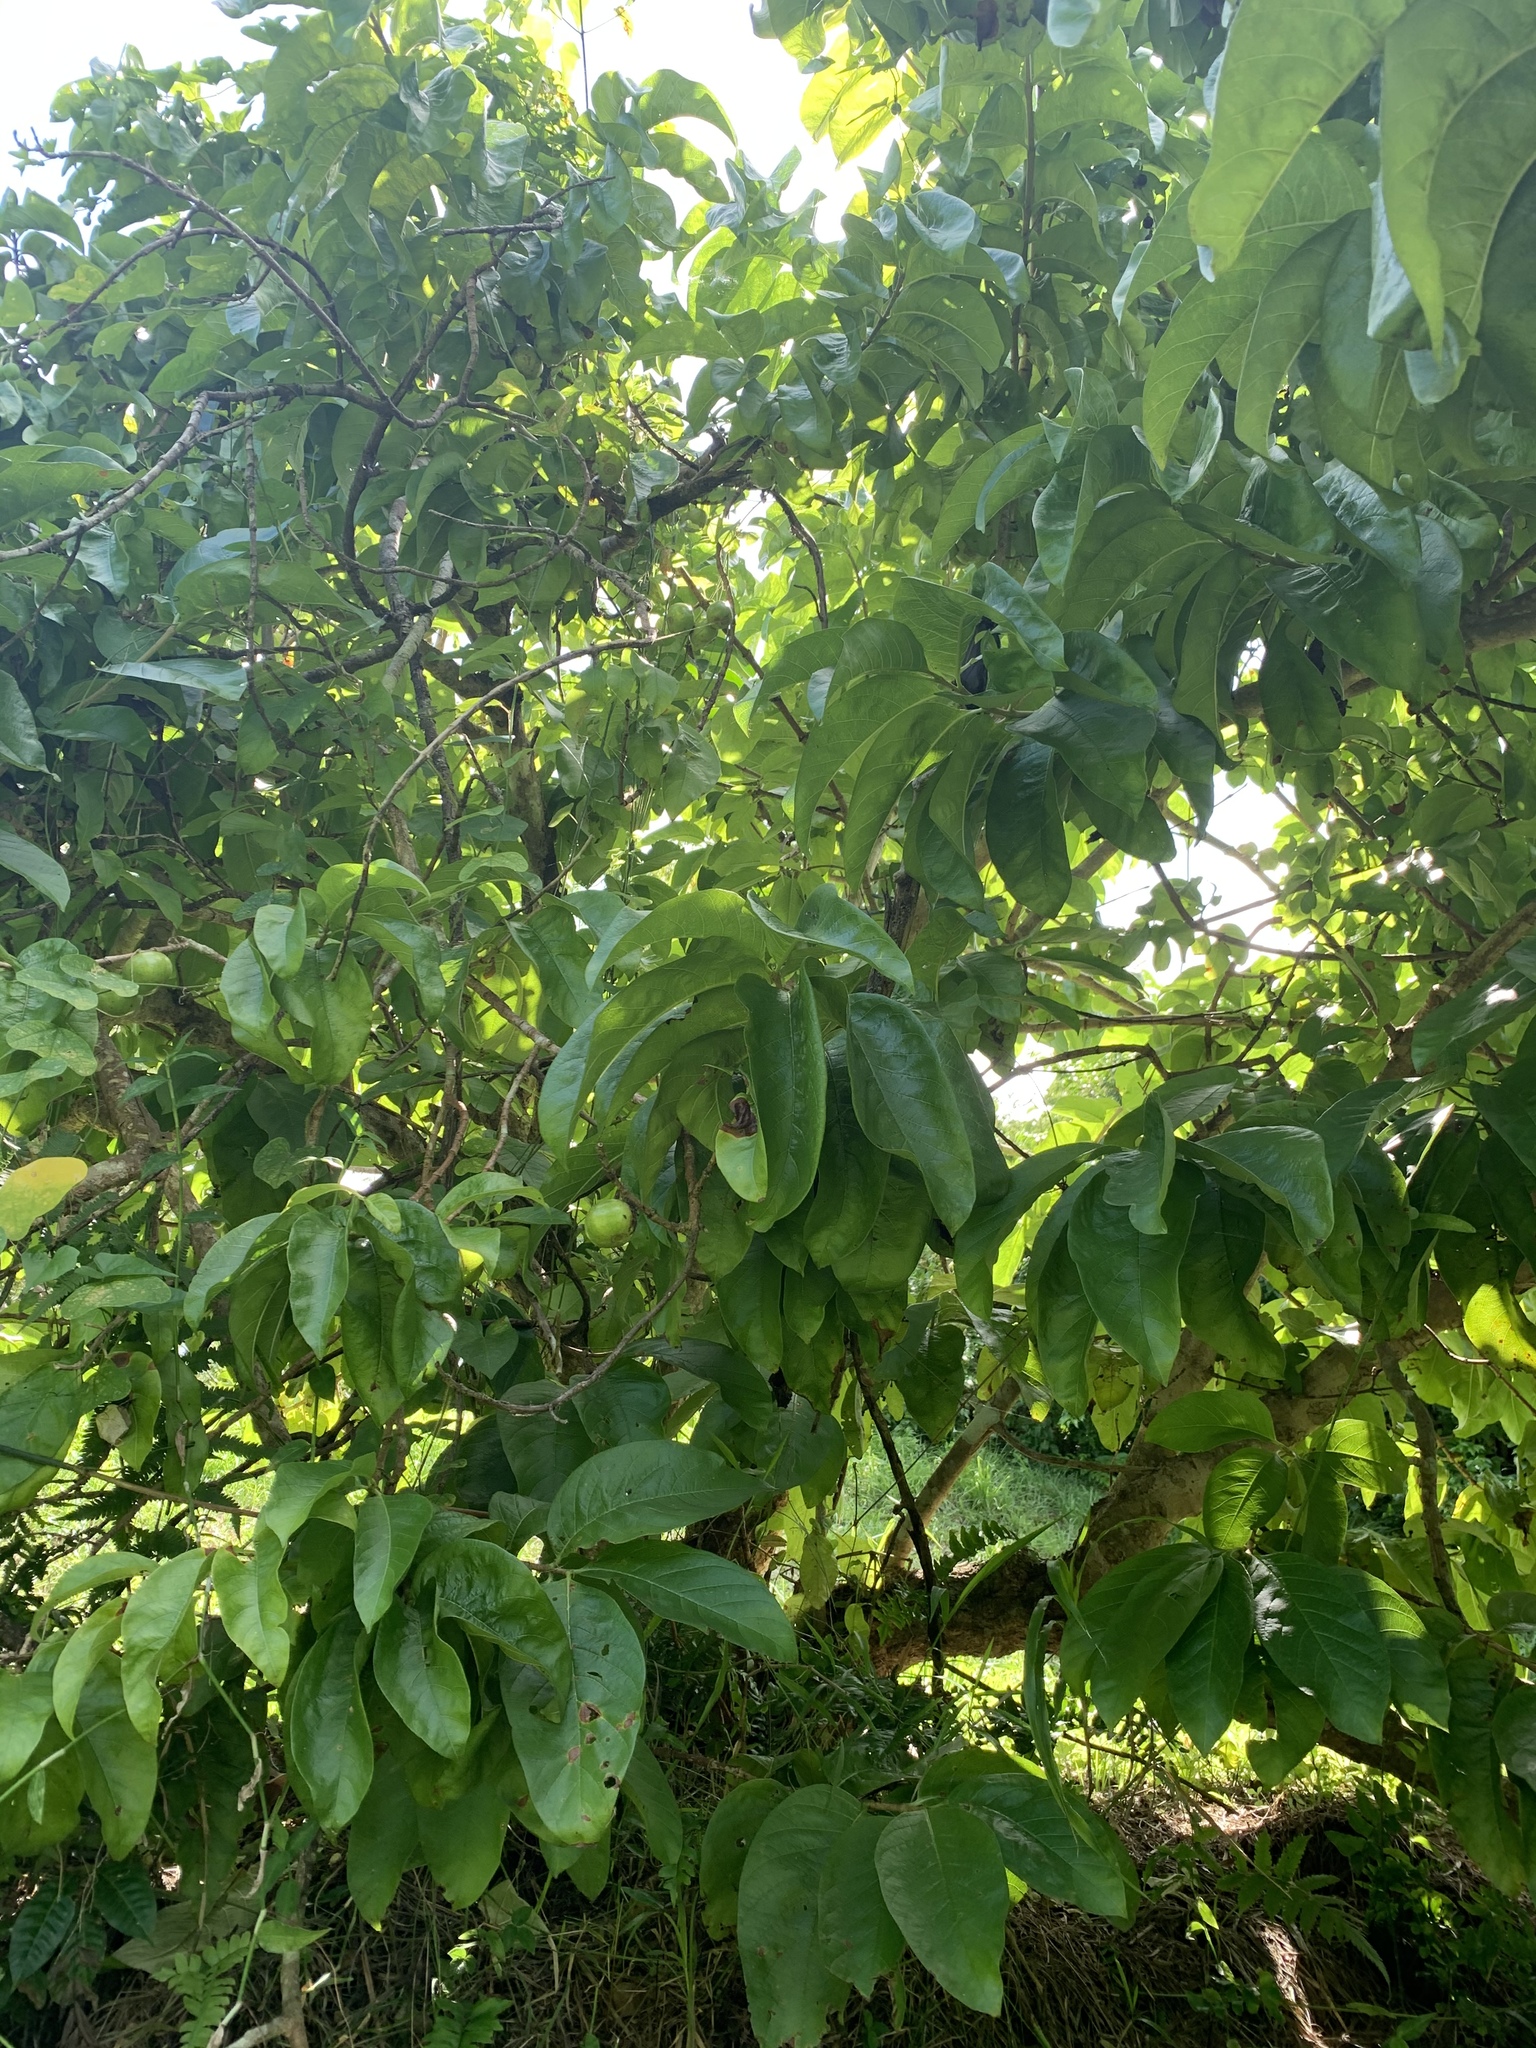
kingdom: Plantae
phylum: Tracheophyta
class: Magnoliopsida
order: Gentianales
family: Rubiaceae
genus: Vangueria
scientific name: Vangueria madagascariensis
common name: Smooth wild-medlar
